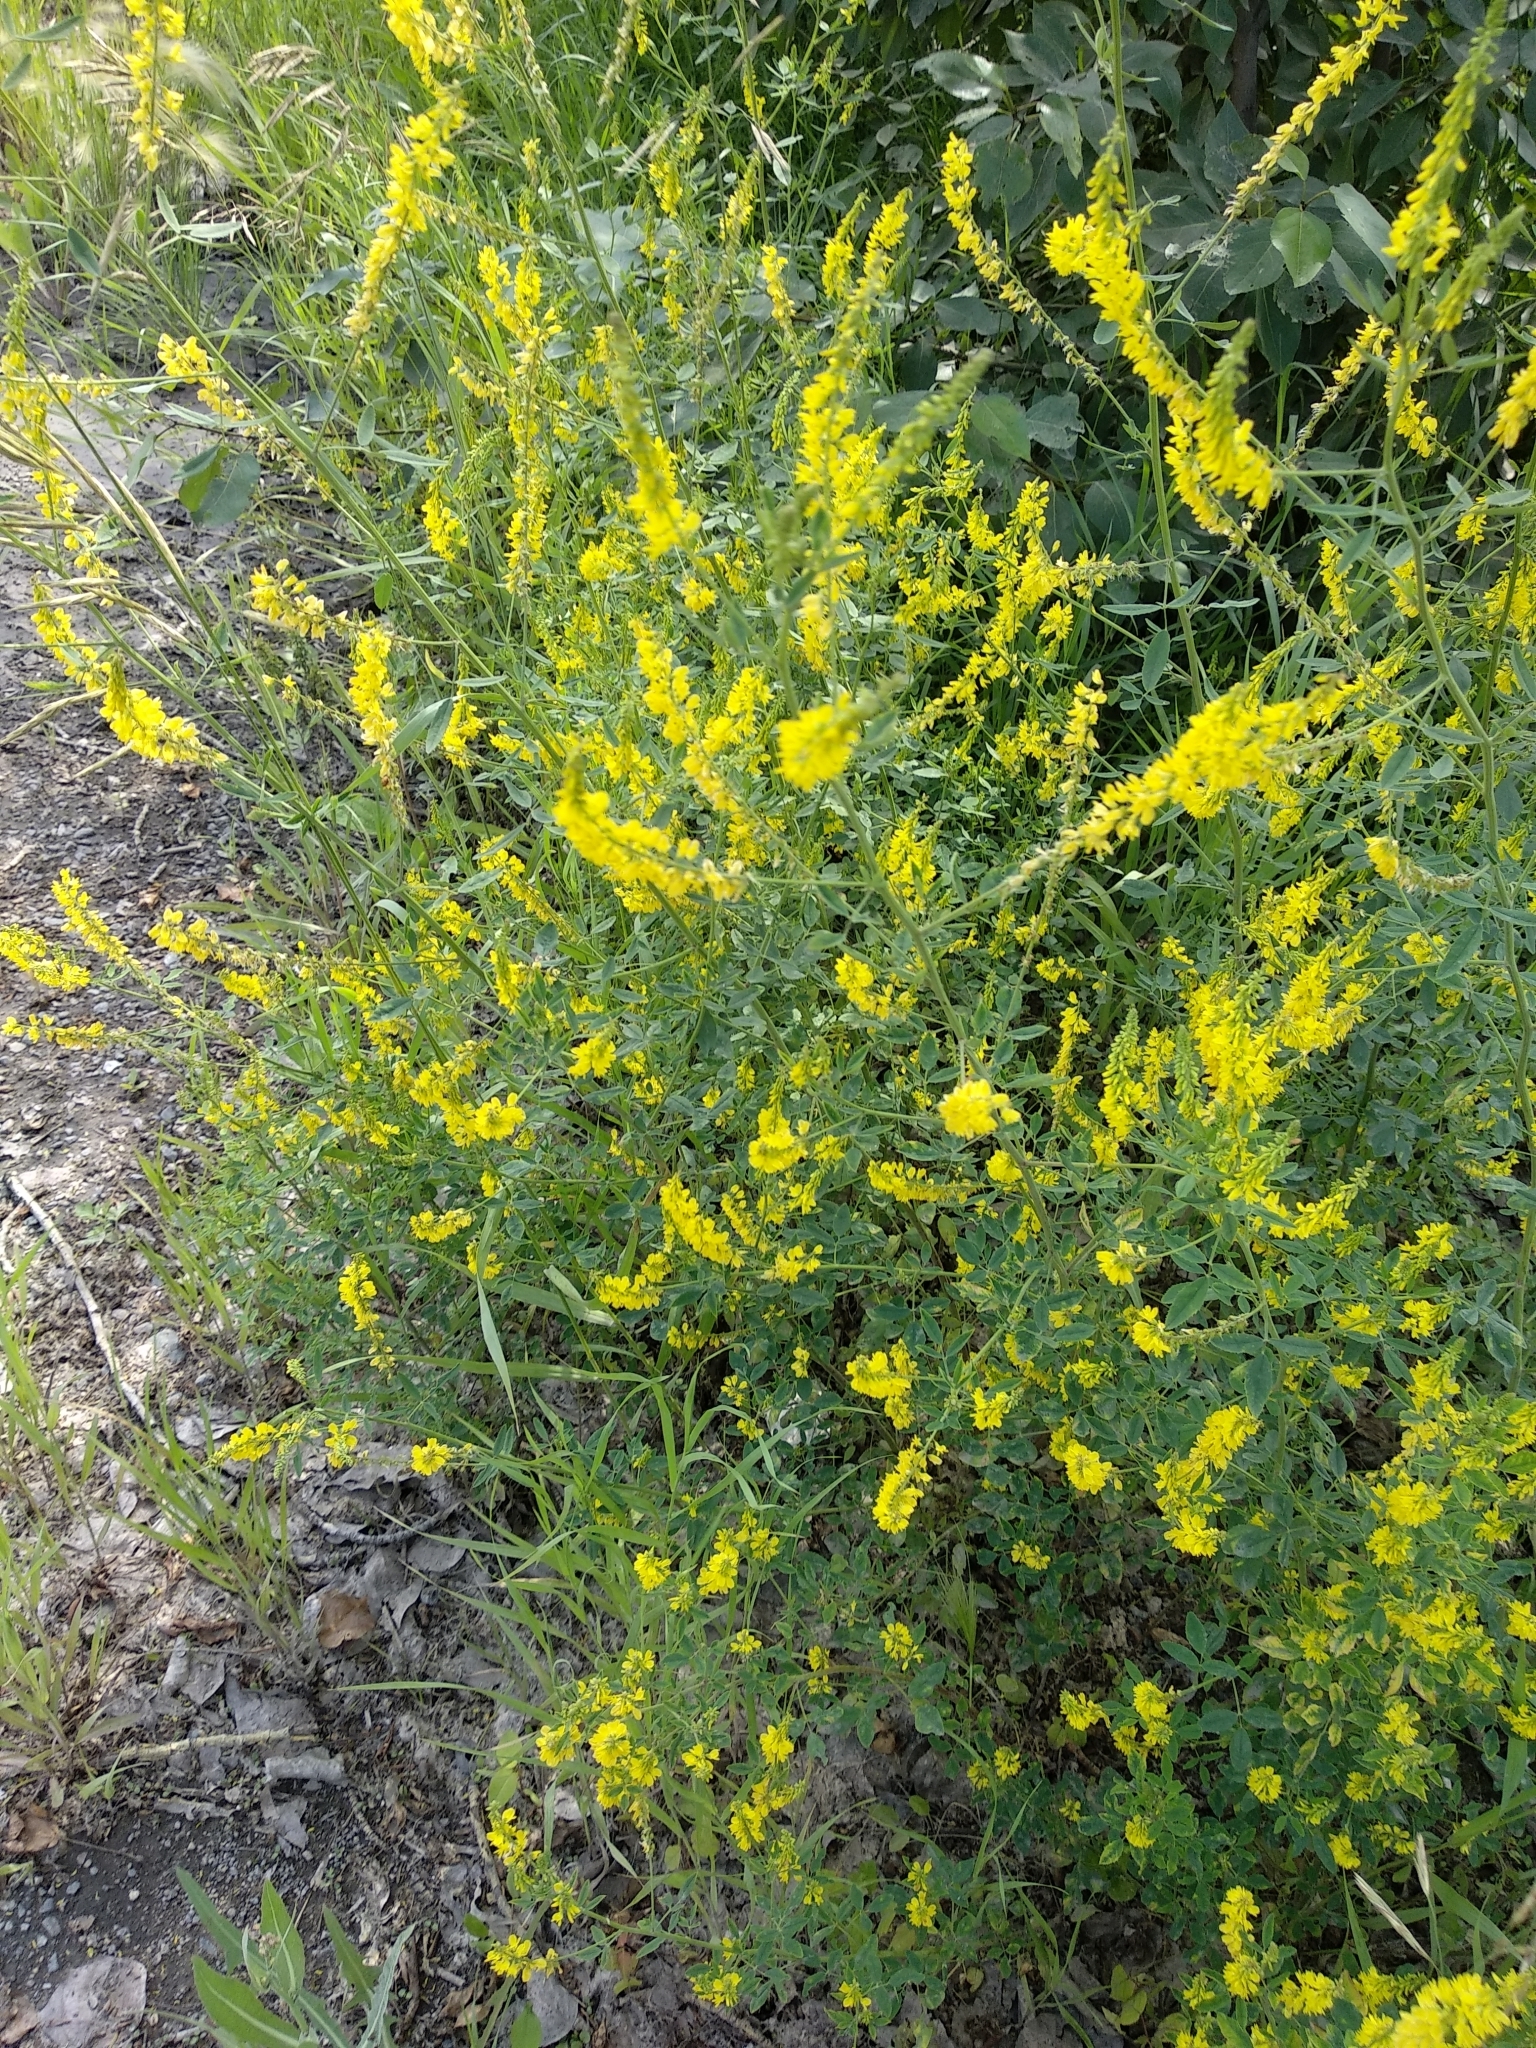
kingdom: Plantae
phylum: Tracheophyta
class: Magnoliopsida
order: Fabales
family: Fabaceae
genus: Melilotus
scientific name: Melilotus officinalis
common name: Sweetclover
